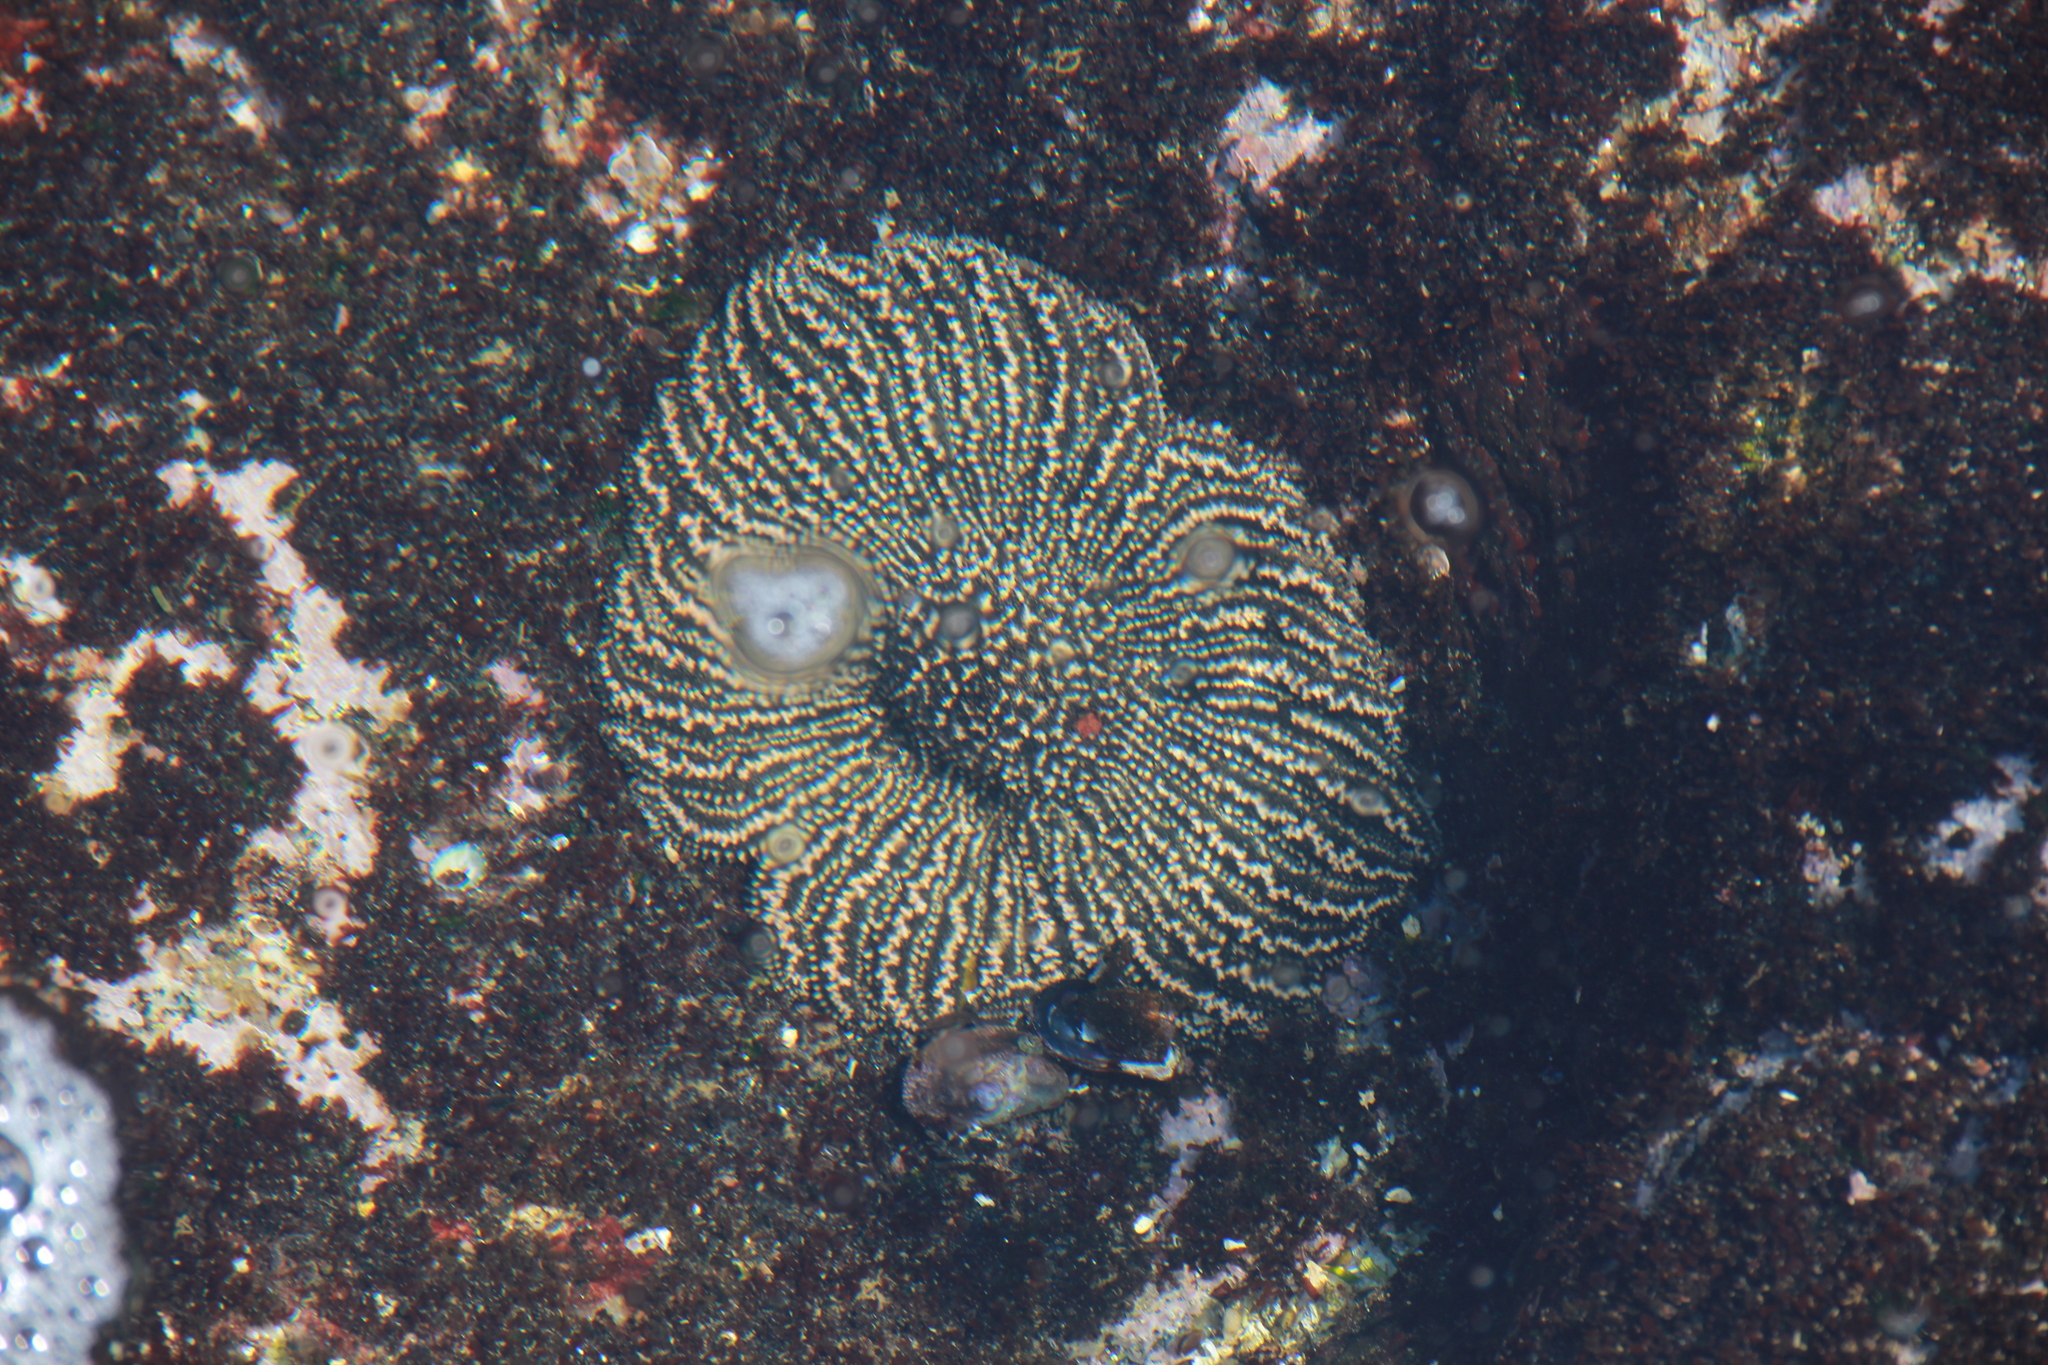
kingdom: Animalia
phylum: Echinodermata
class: Asteroidea
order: Forcipulatida
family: Heliasteridae
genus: Heliaster
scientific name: Heliaster helianthus
